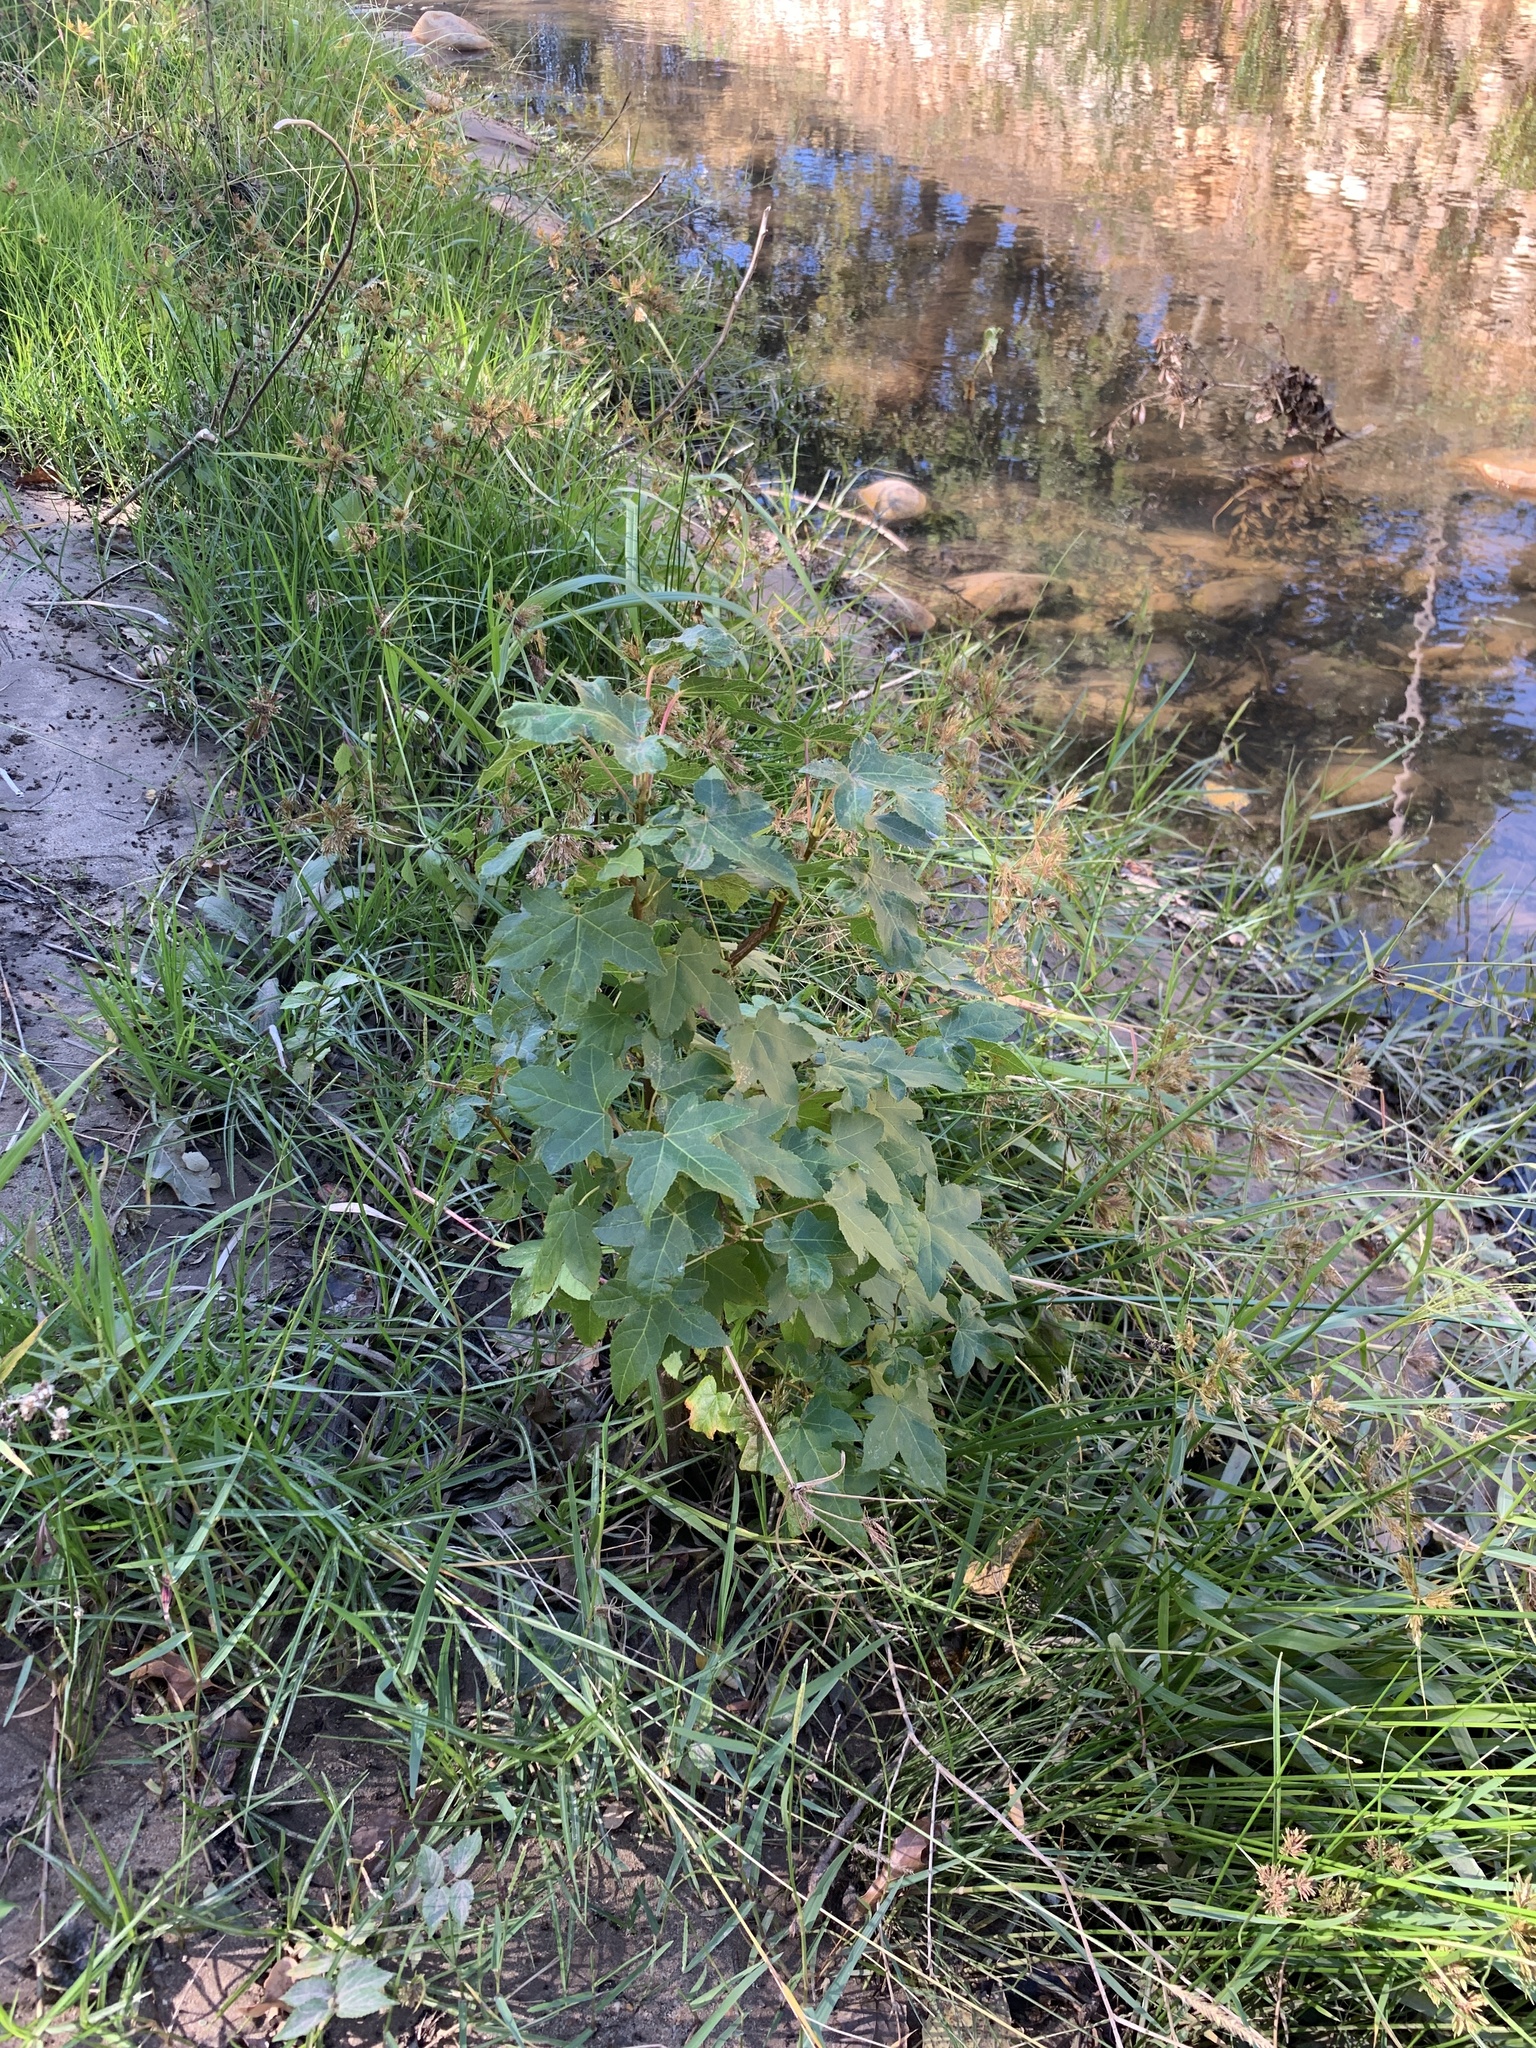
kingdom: Plantae
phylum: Tracheophyta
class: Magnoliopsida
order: Saxifragales
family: Altingiaceae
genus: Liquidambar
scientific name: Liquidambar styraciflua
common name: Sweet gum
